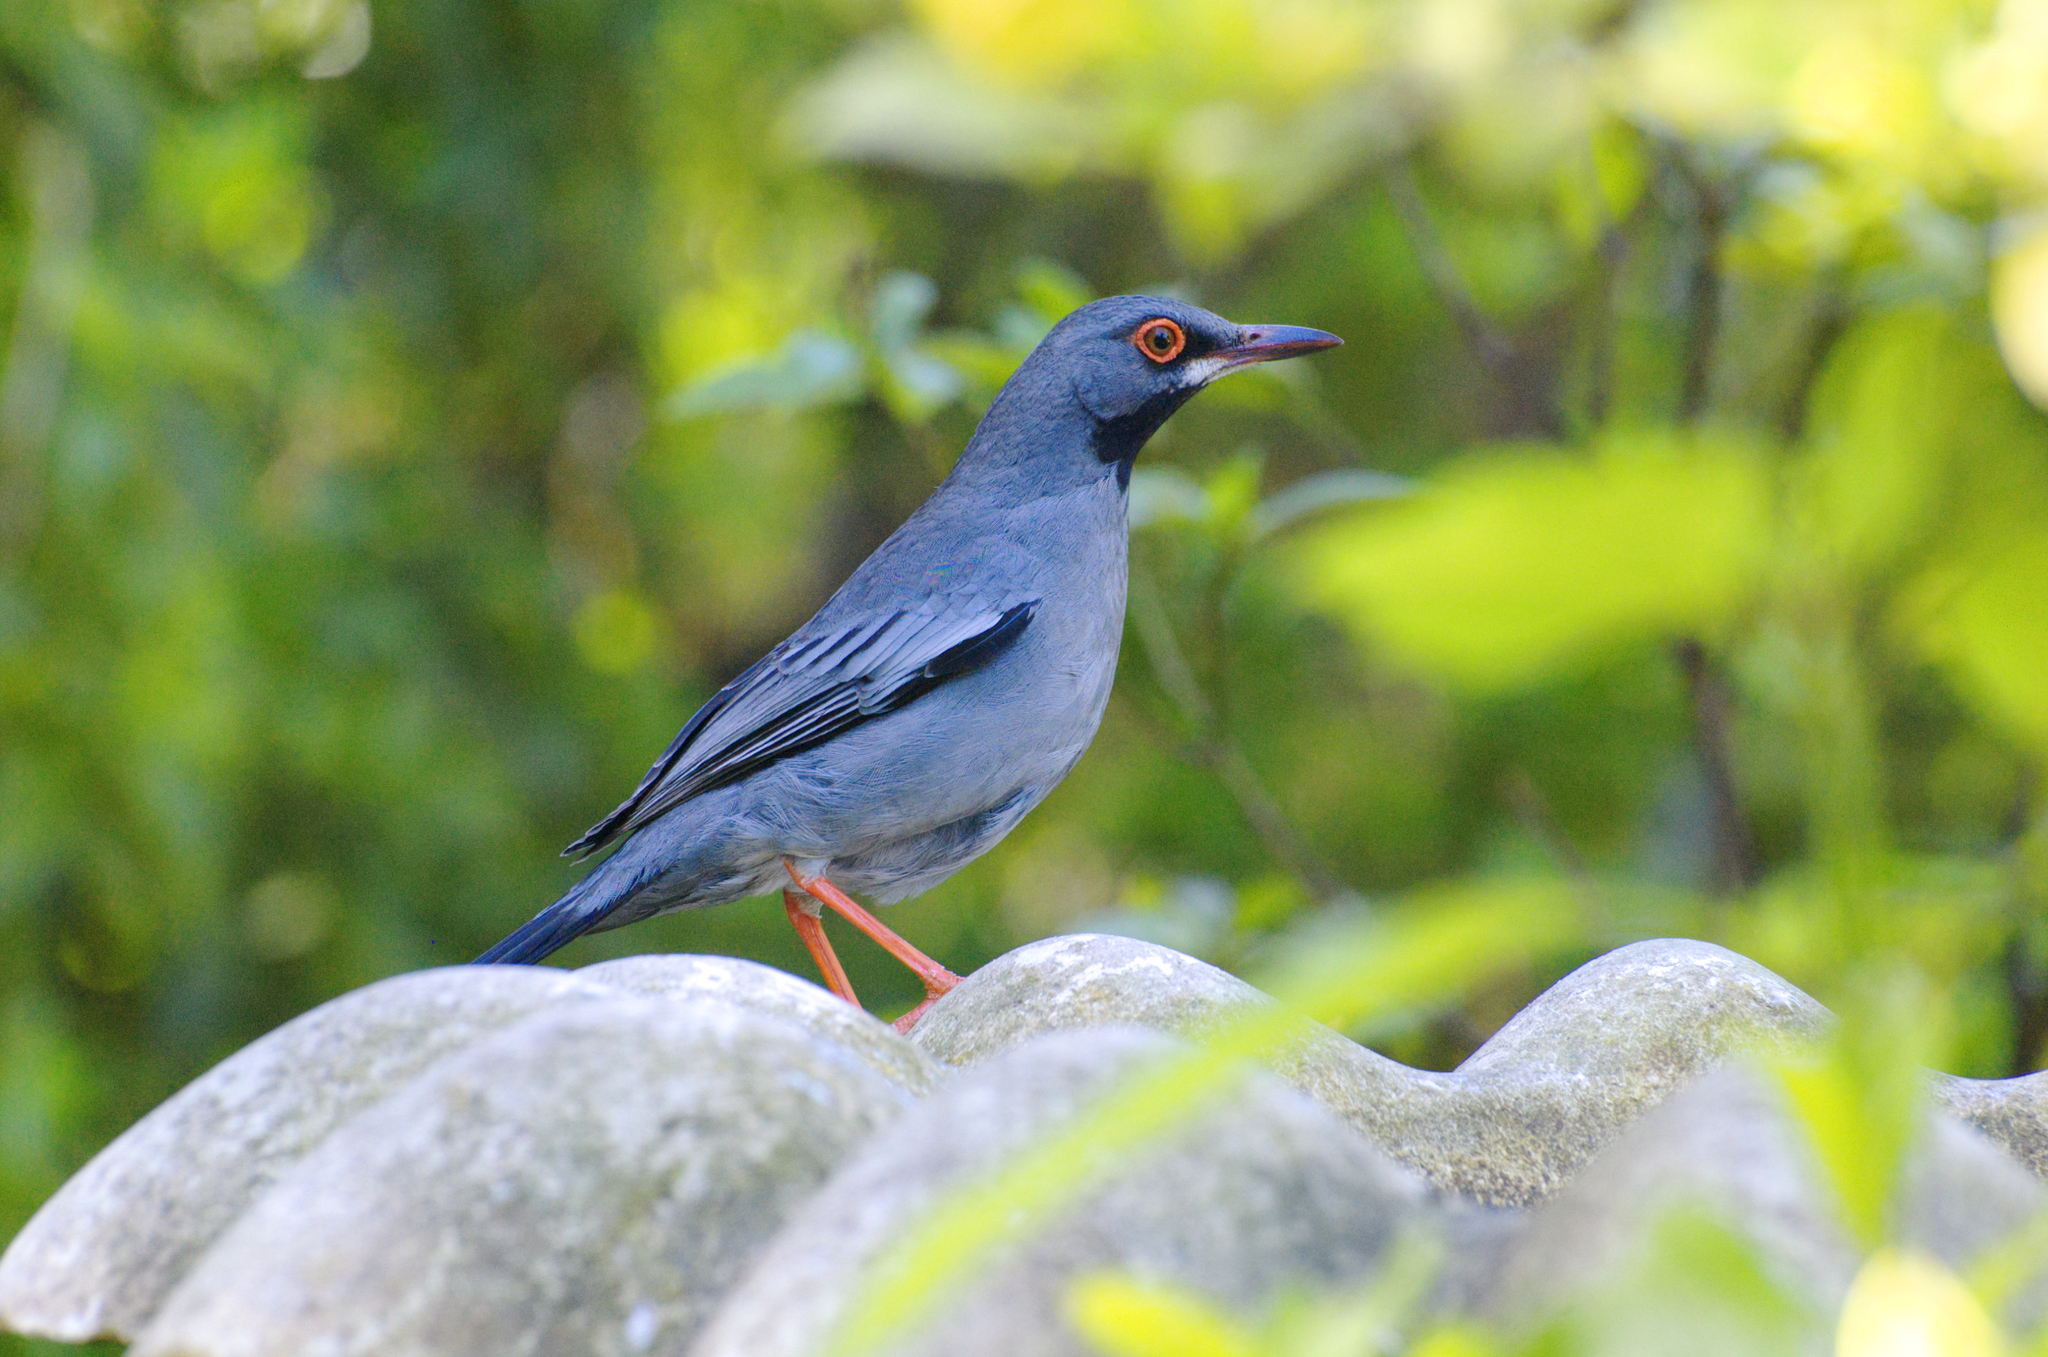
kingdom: Animalia
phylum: Chordata
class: Aves
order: Passeriformes
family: Turdidae
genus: Turdus
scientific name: Turdus plumbeus
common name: Red-legged thrush
